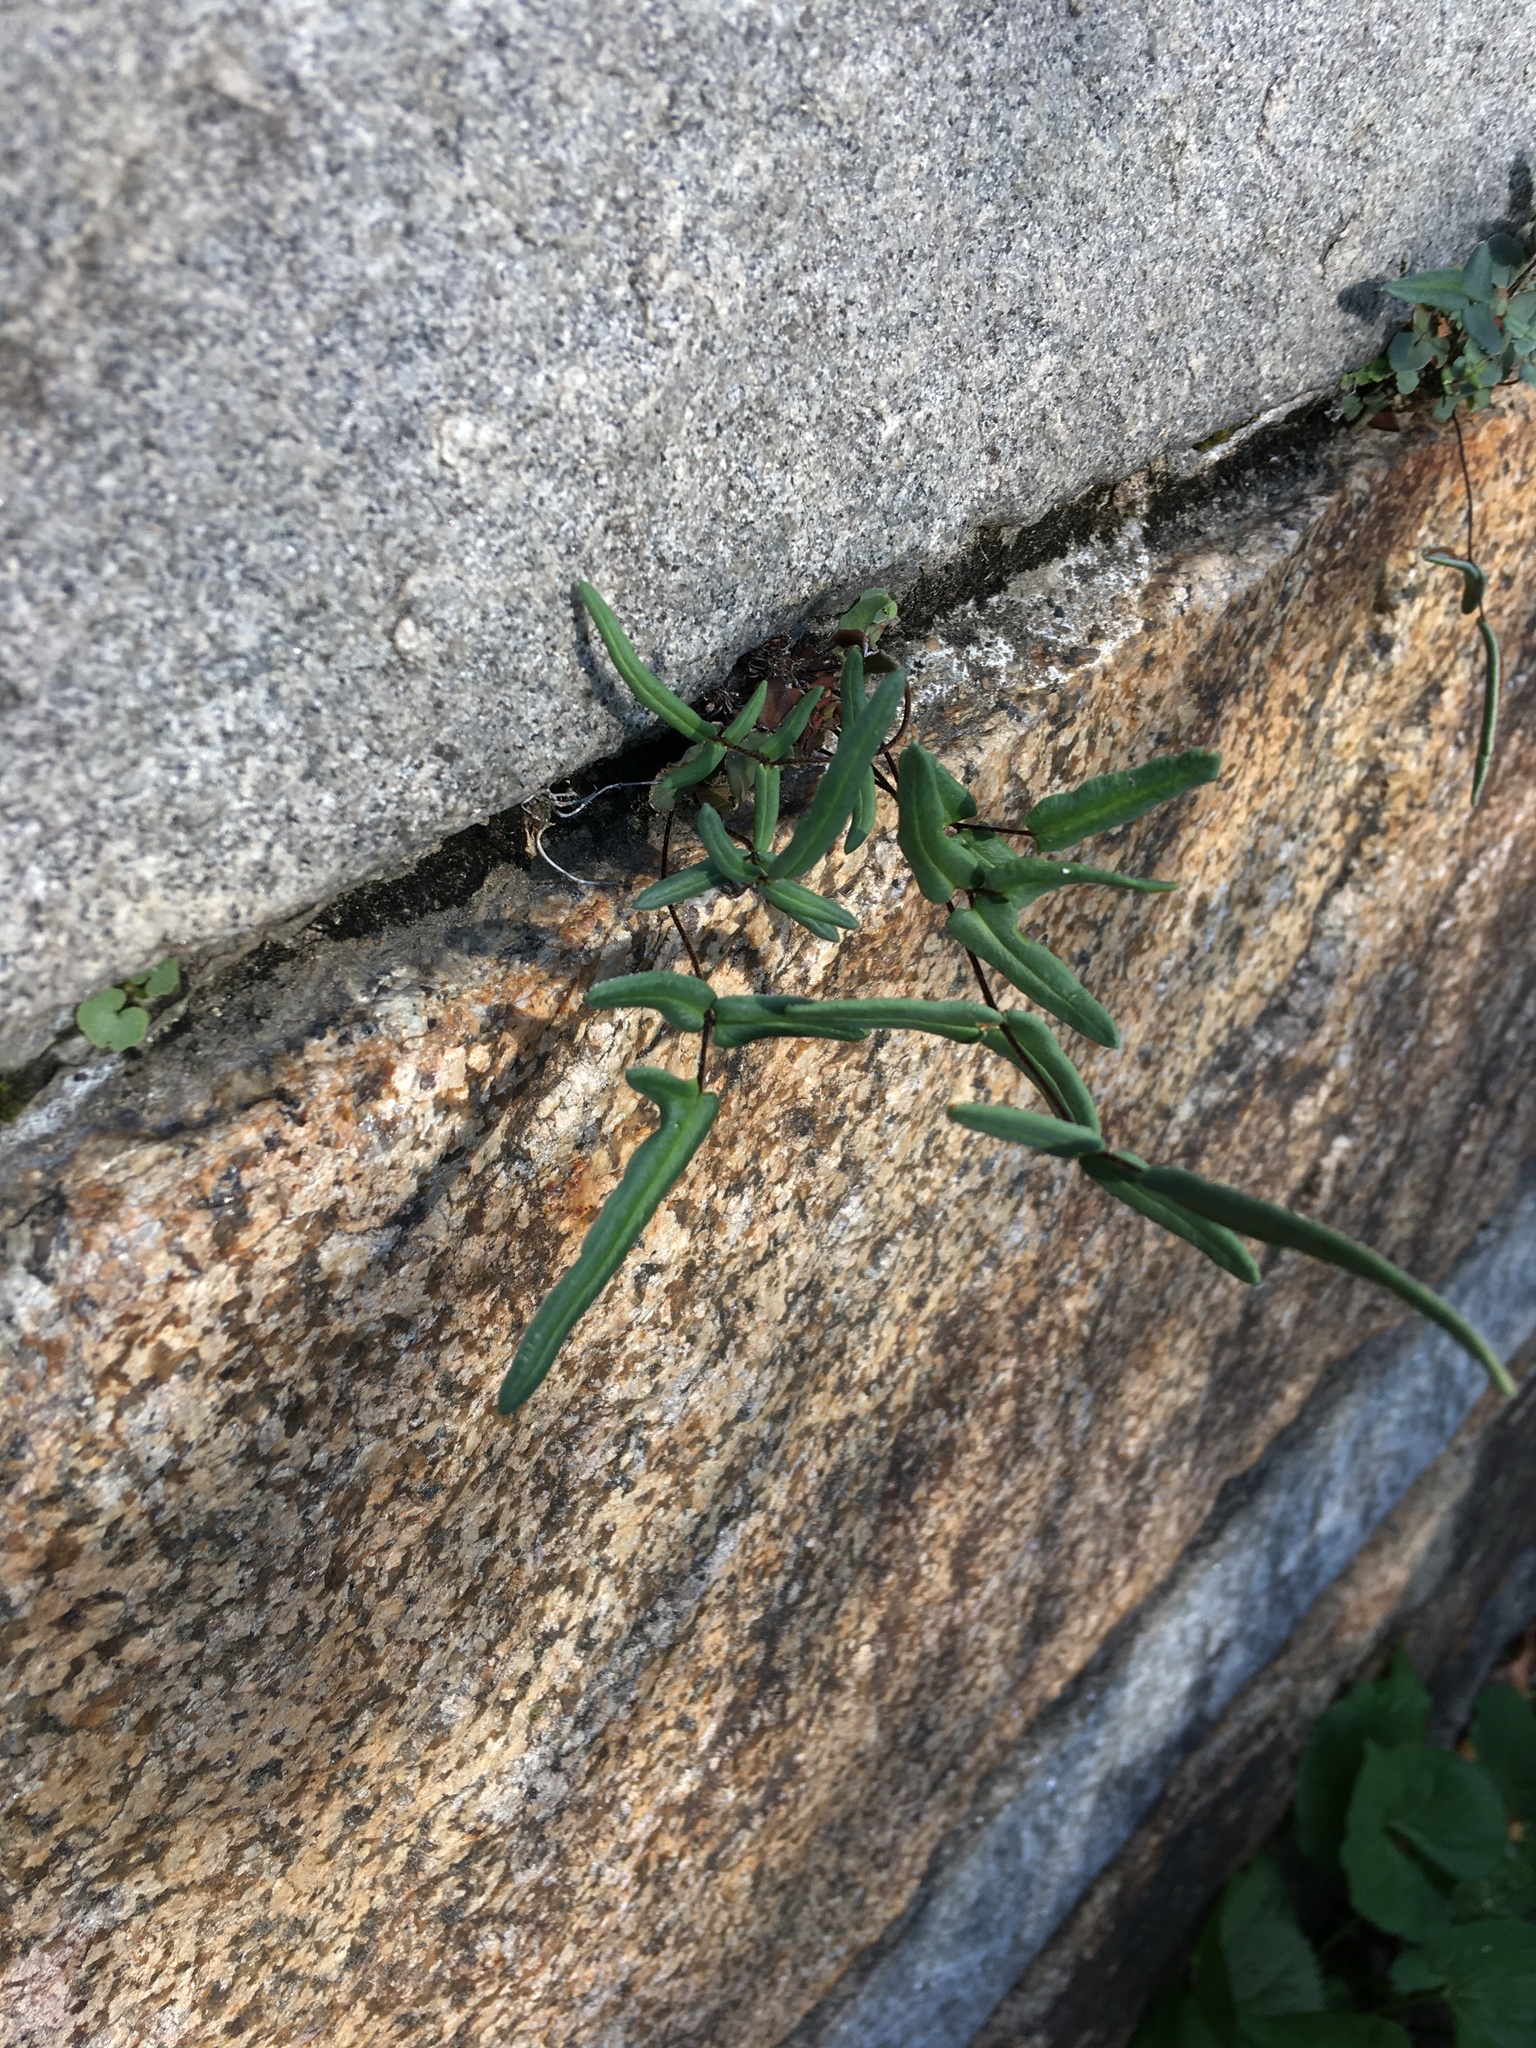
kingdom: Plantae
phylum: Tracheophyta
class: Polypodiopsida
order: Polypodiales
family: Pteridaceae
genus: Pellaea
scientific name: Pellaea atropurpurea
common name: Hairy cliffbrake
